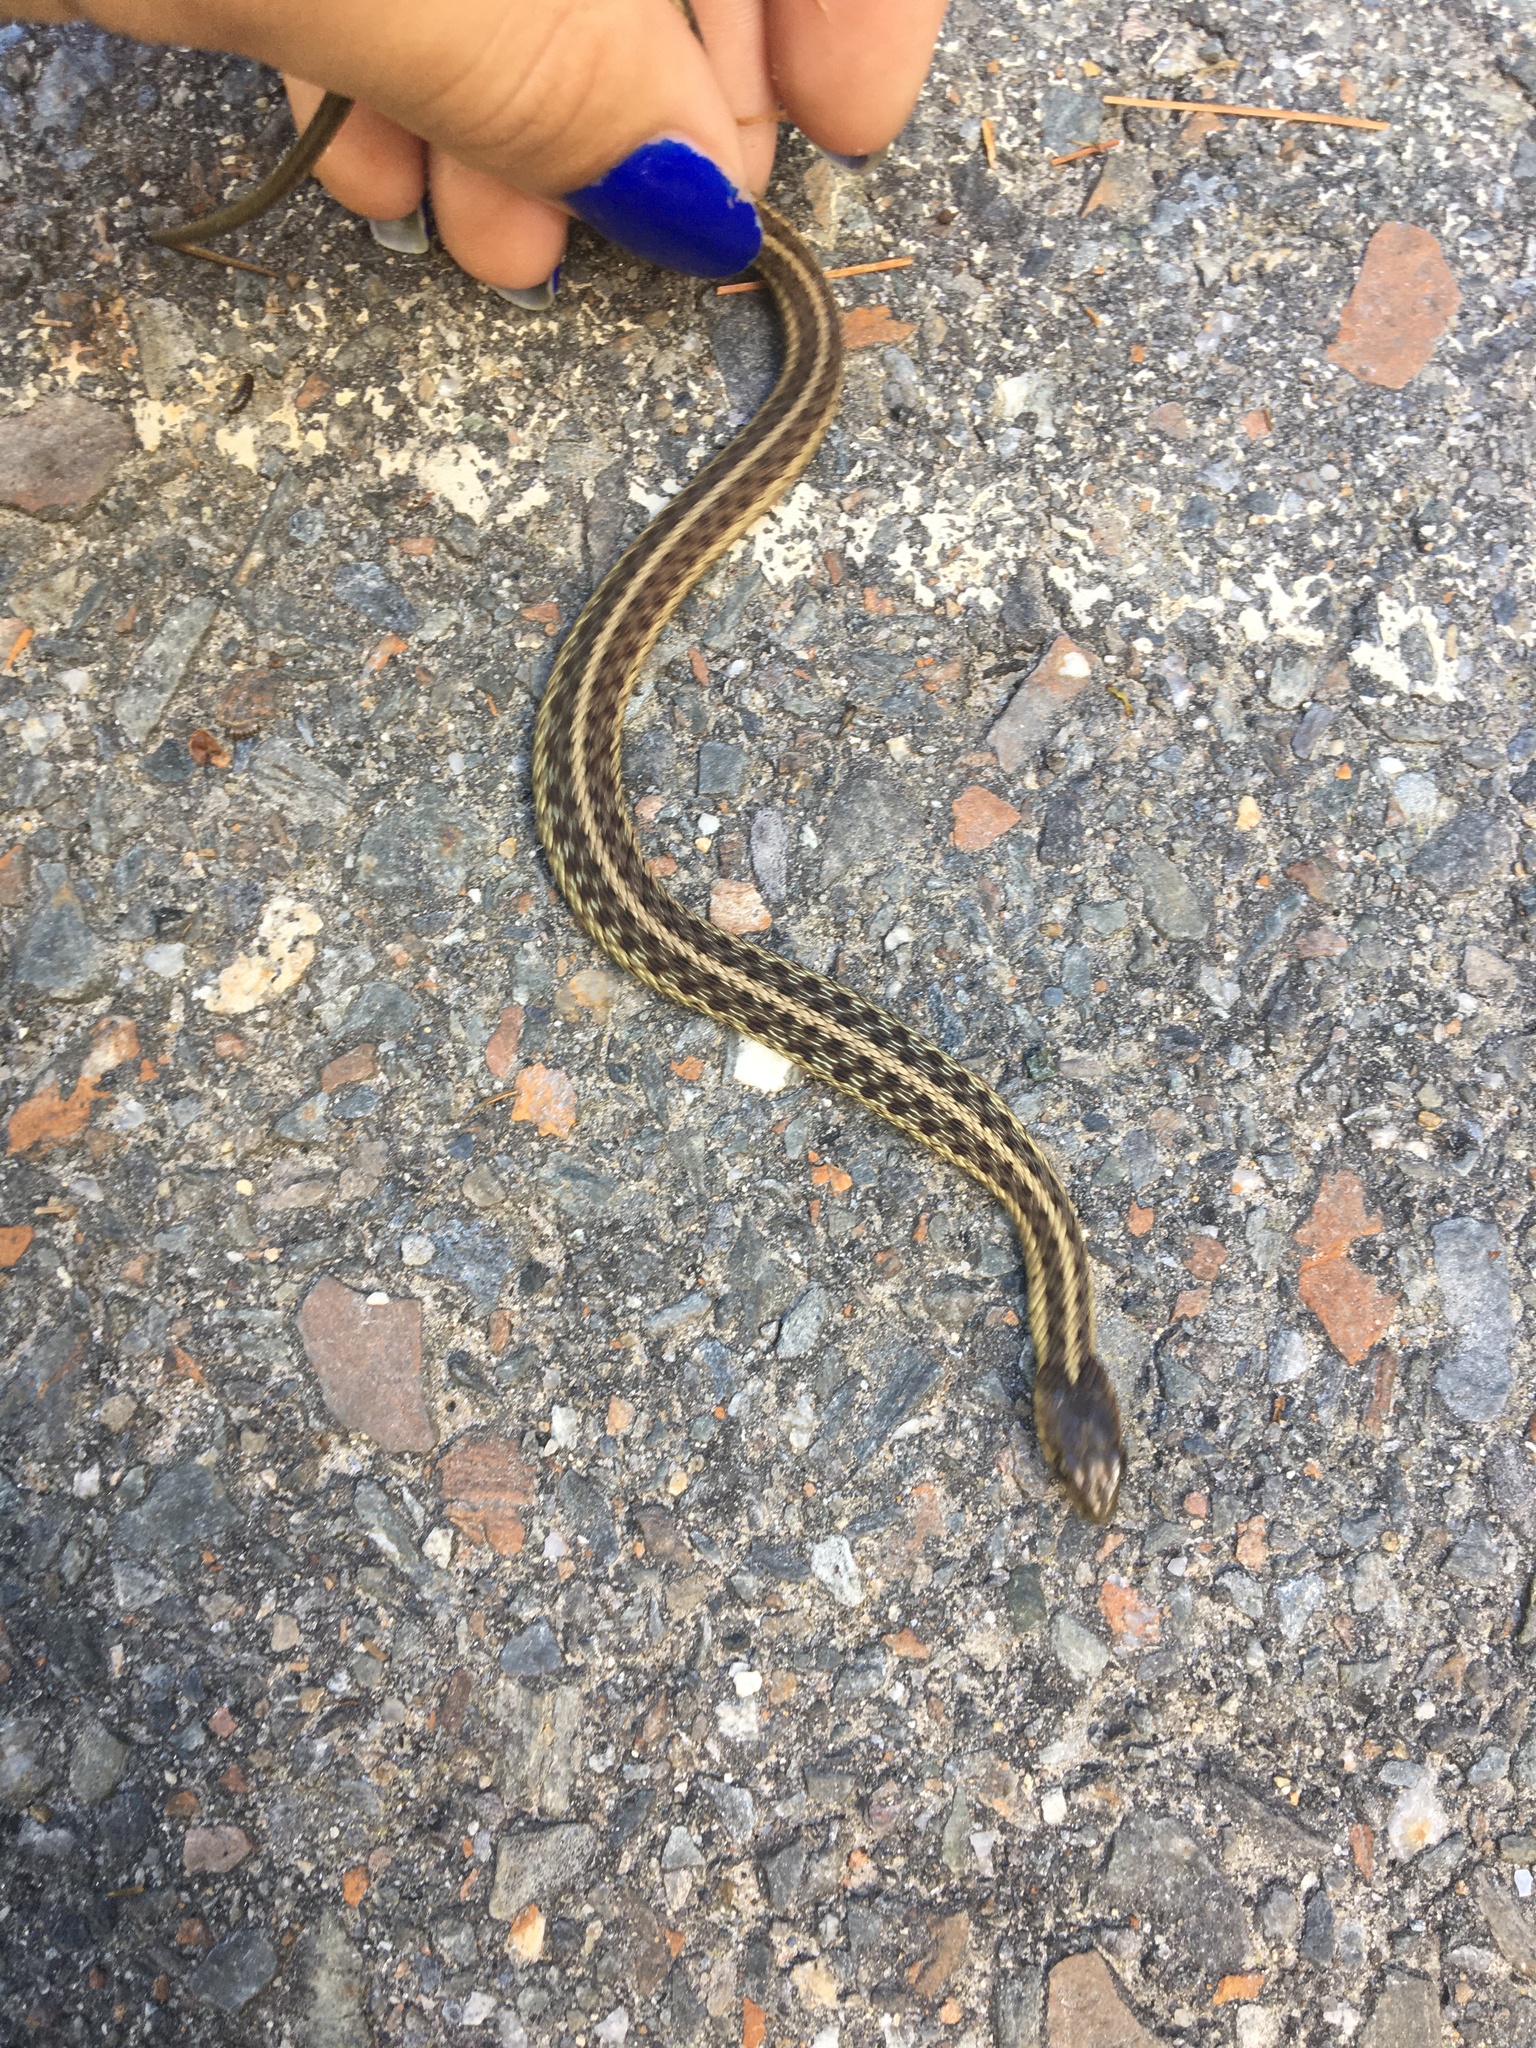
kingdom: Animalia
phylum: Chordata
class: Squamata
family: Colubridae
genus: Thamnophis
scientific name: Thamnophis sirtalis
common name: Common garter snake
